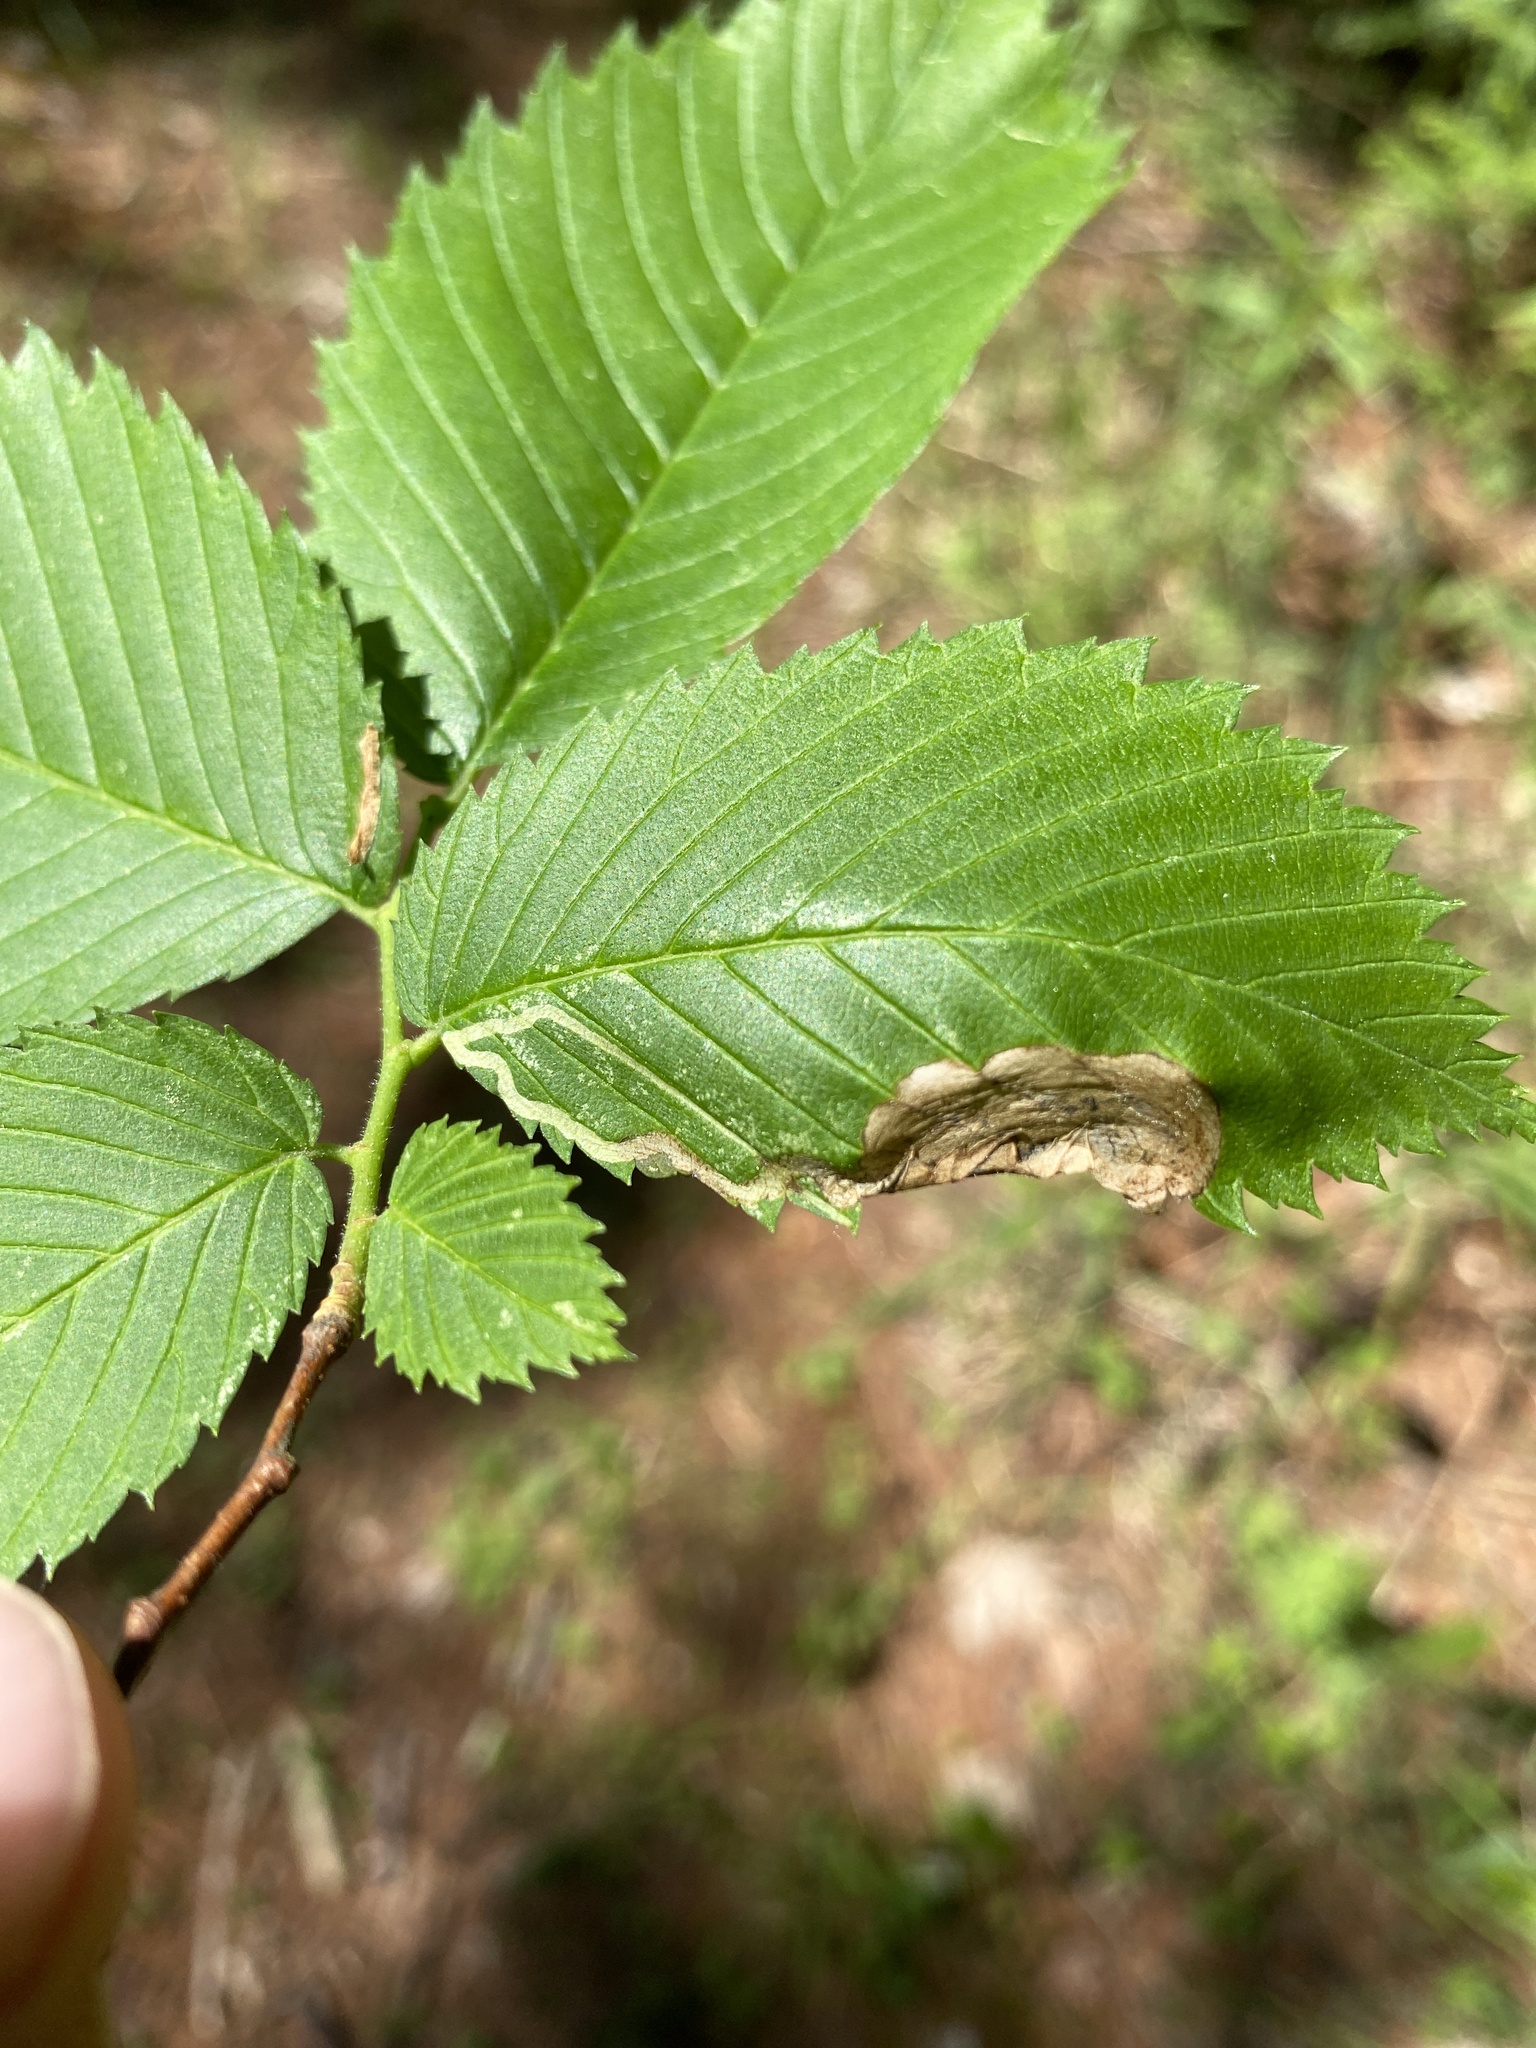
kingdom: Animalia
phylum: Arthropoda
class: Insecta
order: Diptera
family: Agromyzidae
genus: Agromyza
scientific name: Agromyza aristata
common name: Elm agromyzid leafminer
